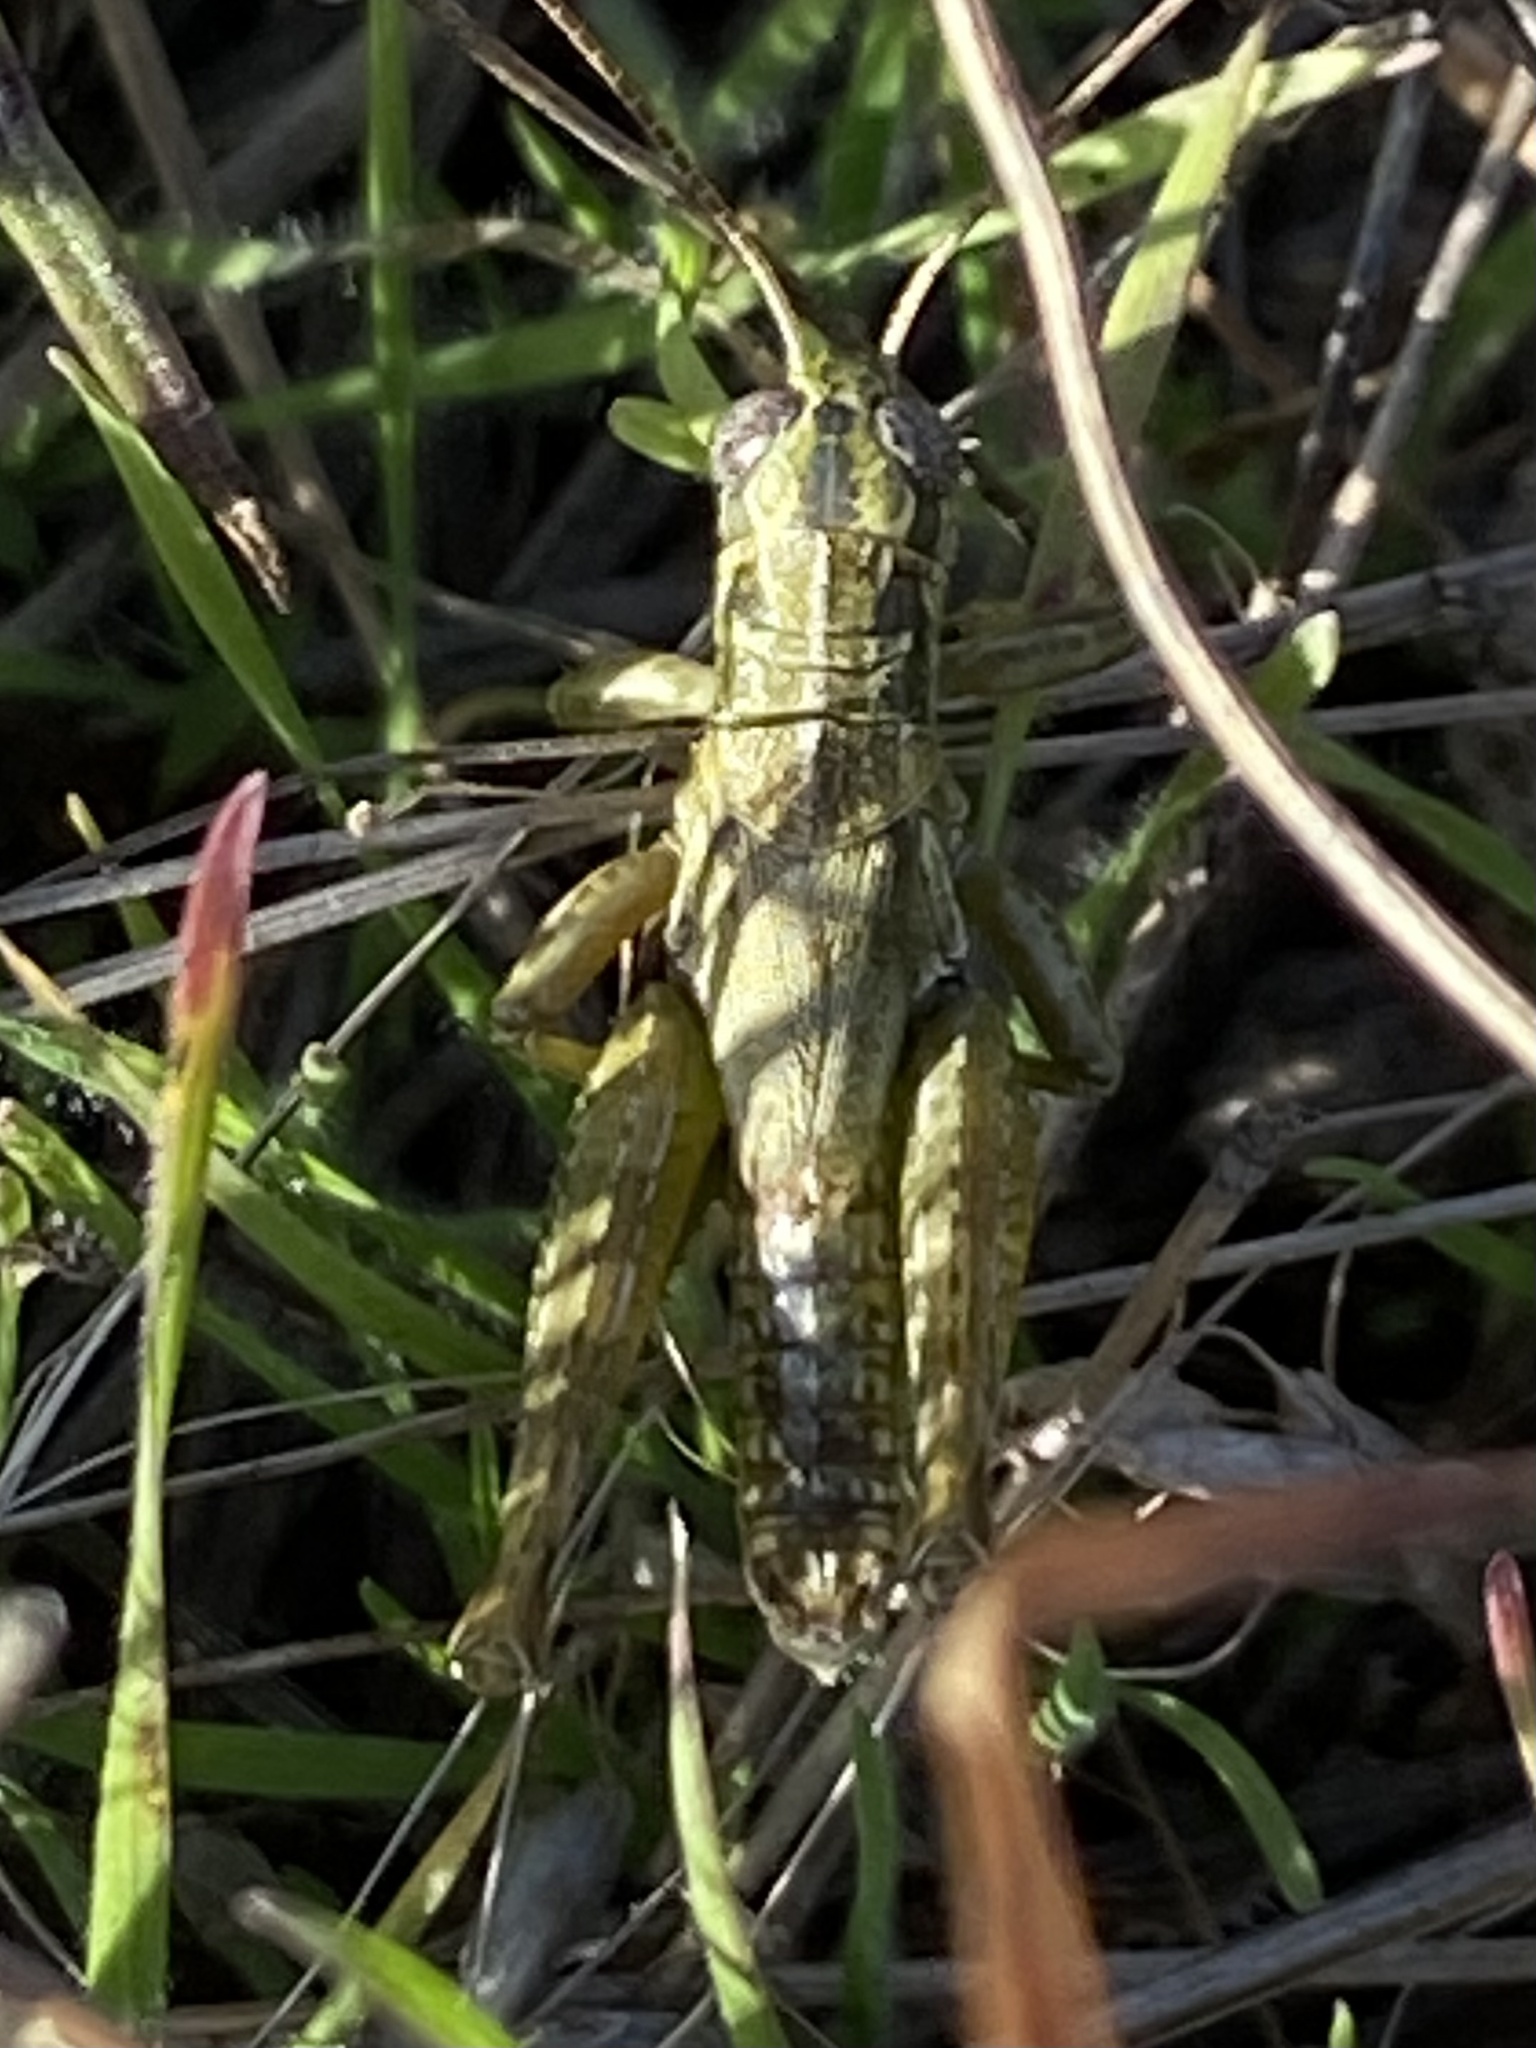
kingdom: Animalia
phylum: Arthropoda
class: Insecta
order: Orthoptera
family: Acrididae
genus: Campylacantha
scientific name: Campylacantha olivacea
